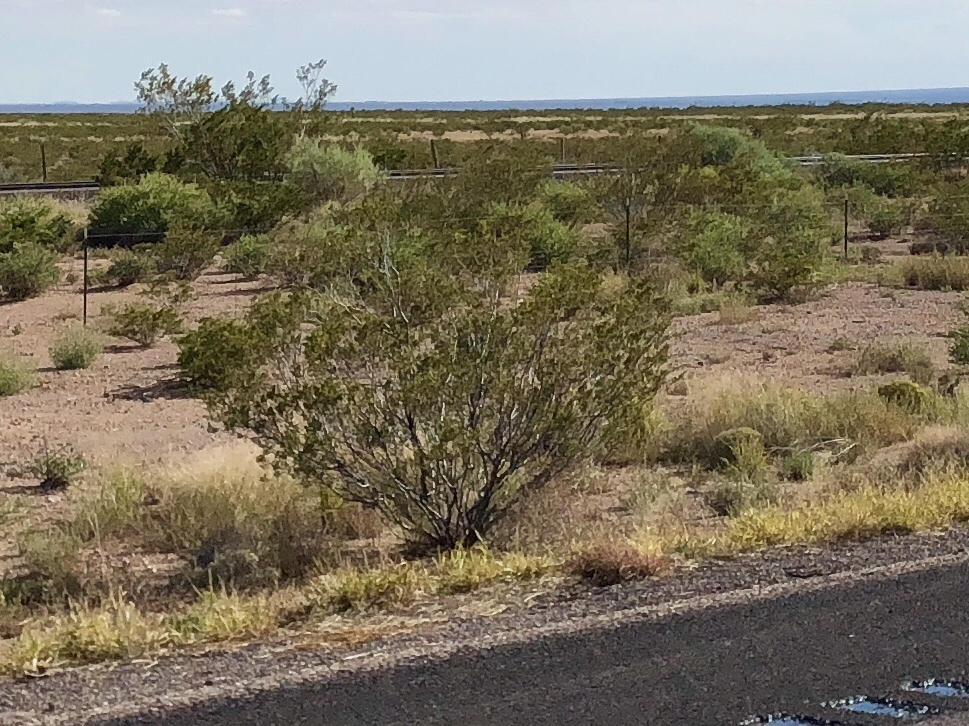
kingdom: Plantae
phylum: Tracheophyta
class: Magnoliopsida
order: Zygophyllales
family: Zygophyllaceae
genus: Larrea
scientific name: Larrea tridentata
